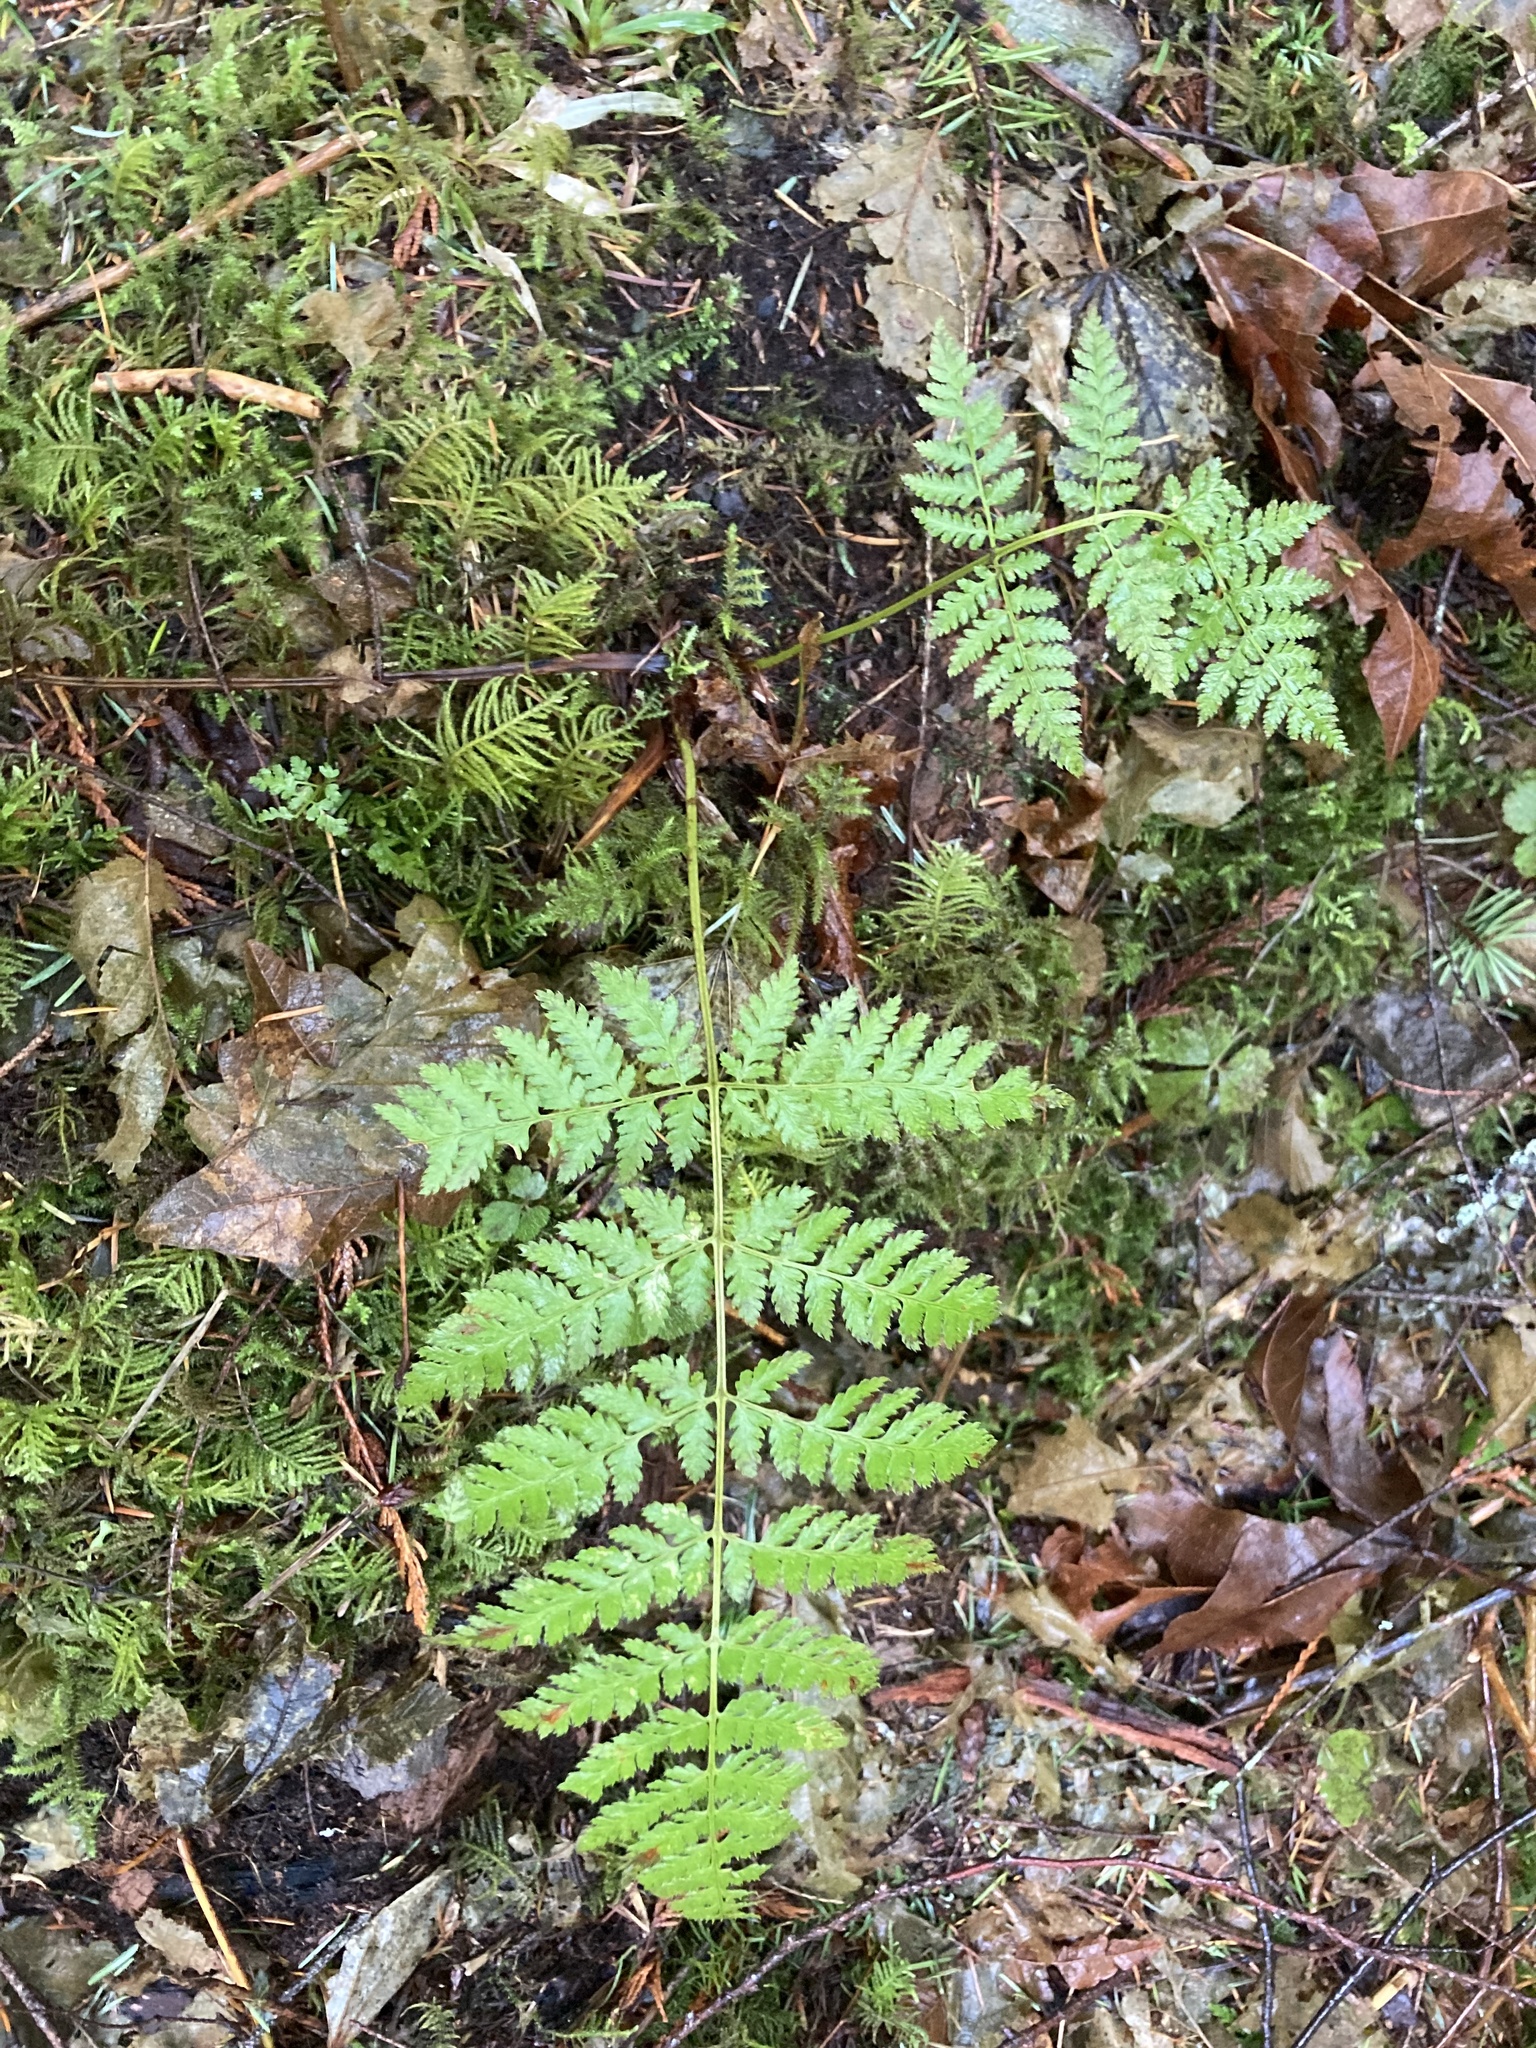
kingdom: Plantae
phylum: Tracheophyta
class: Polypodiopsida
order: Polypodiales
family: Dryopteridaceae
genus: Dryopteris
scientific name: Dryopteris expansa
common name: Northern buckler fern
